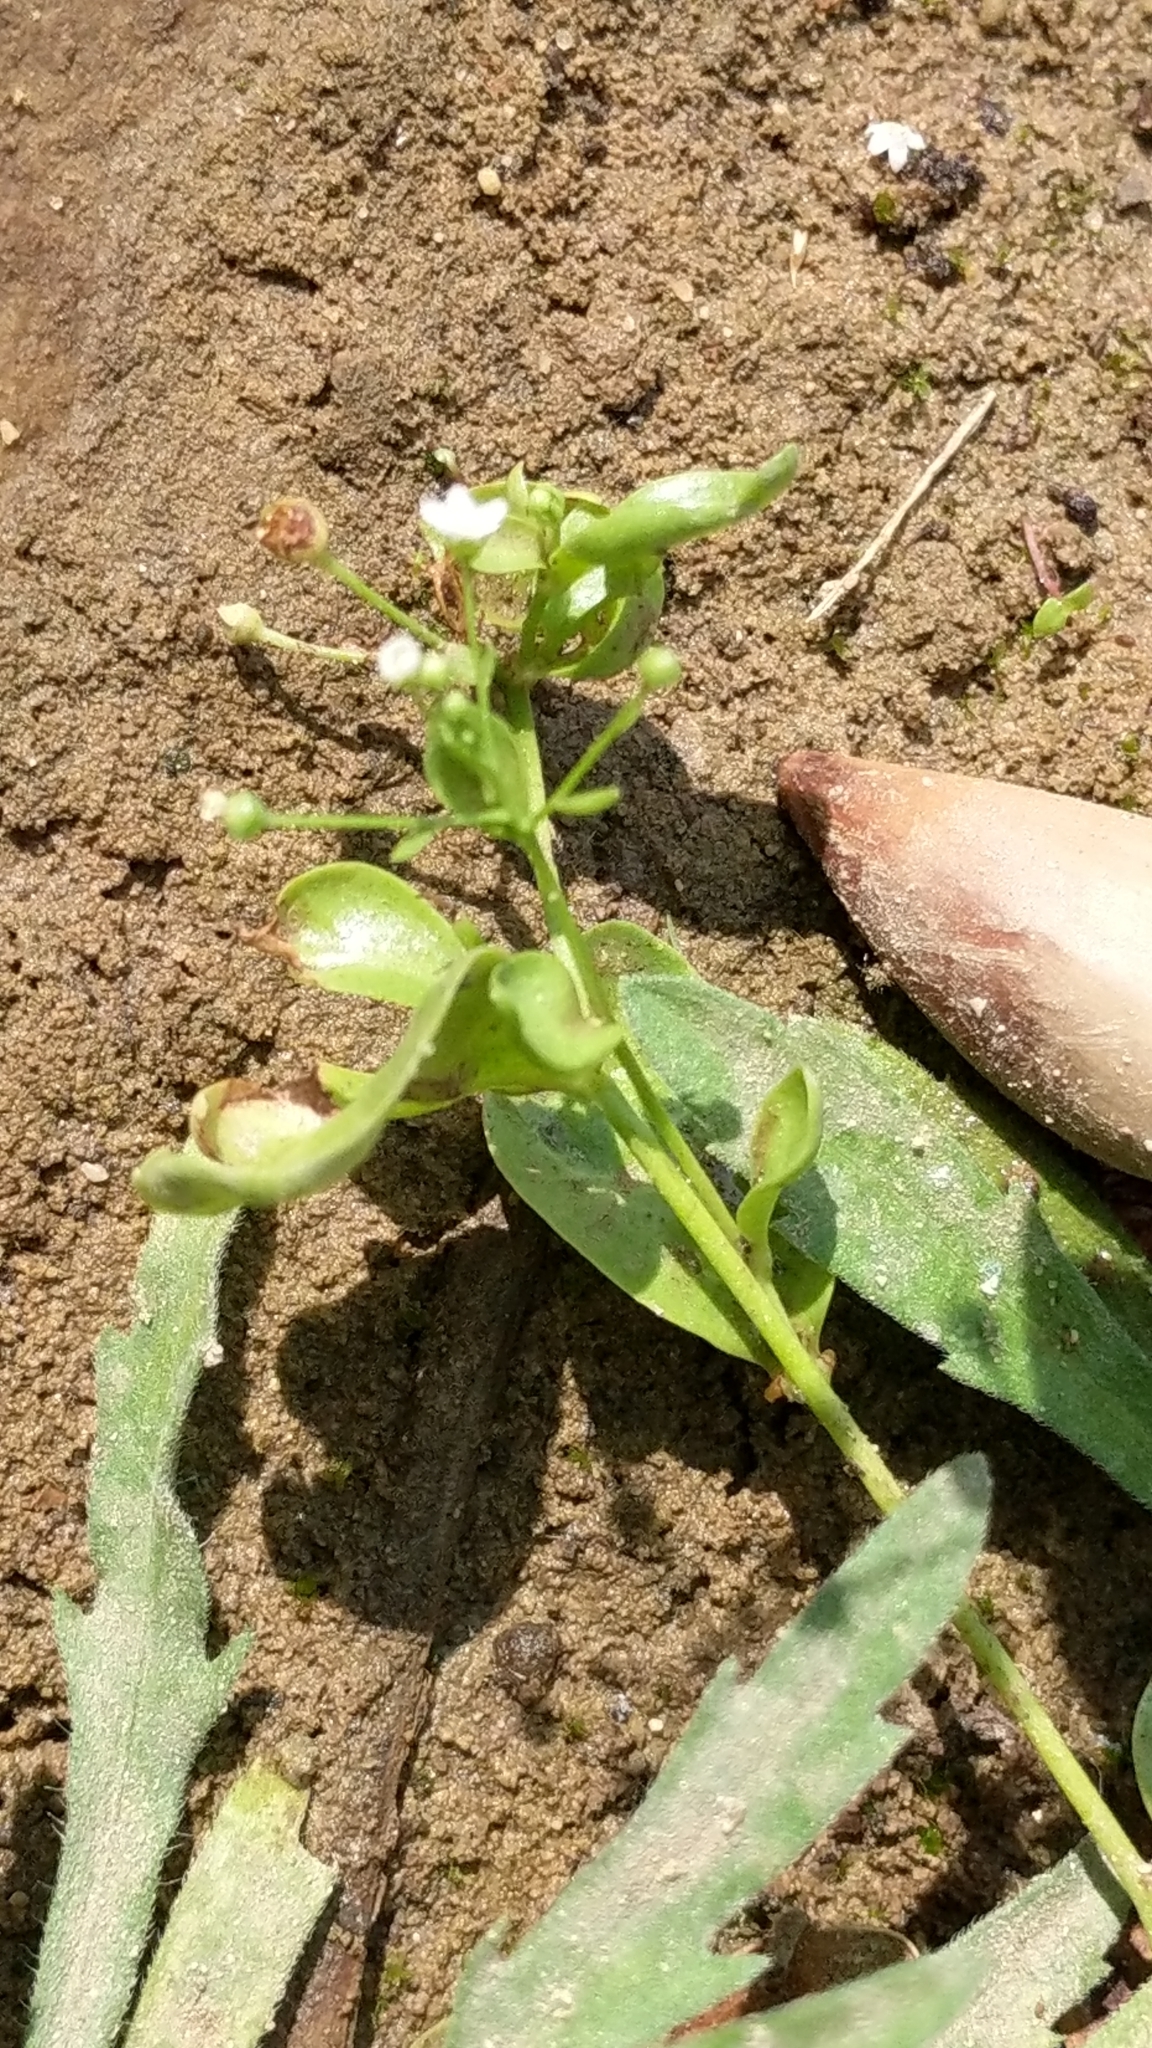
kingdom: Plantae
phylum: Tracheophyta
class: Magnoliopsida
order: Ericales
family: Primulaceae
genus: Samolus
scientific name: Samolus parviflorus
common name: False water pimpernel
